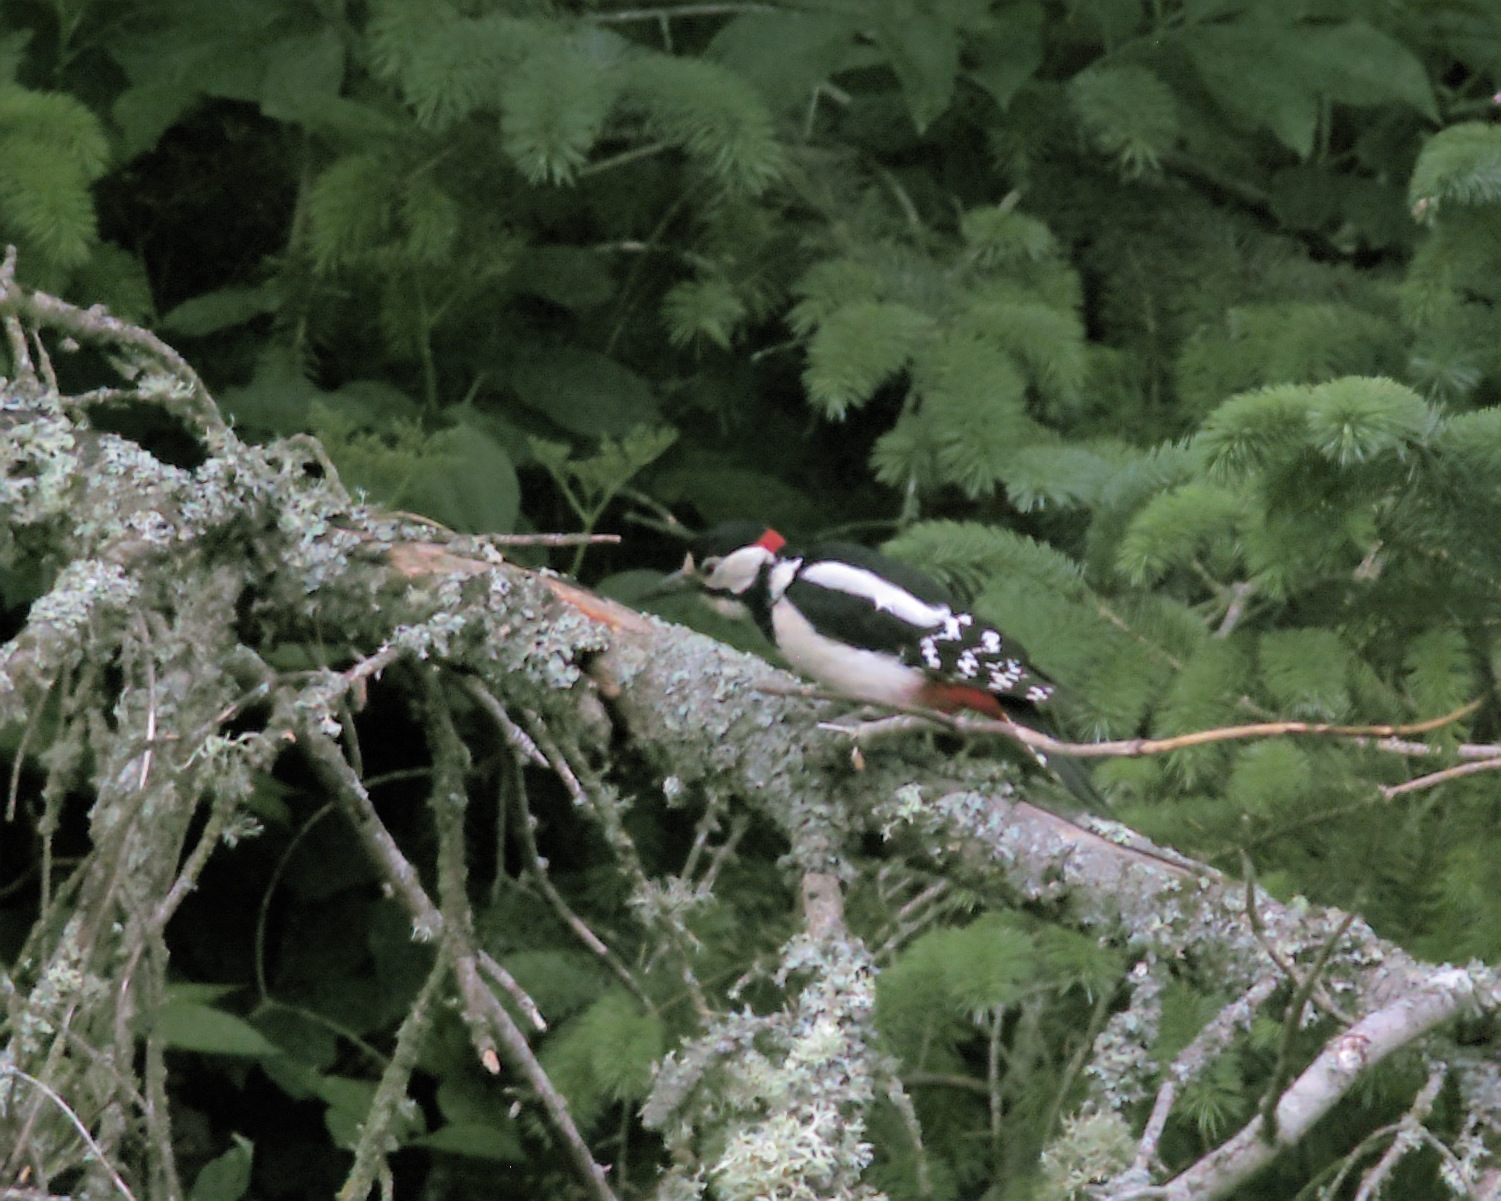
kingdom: Animalia
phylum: Chordata
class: Aves
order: Piciformes
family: Picidae
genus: Dendrocopos
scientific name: Dendrocopos major
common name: Great spotted woodpecker
